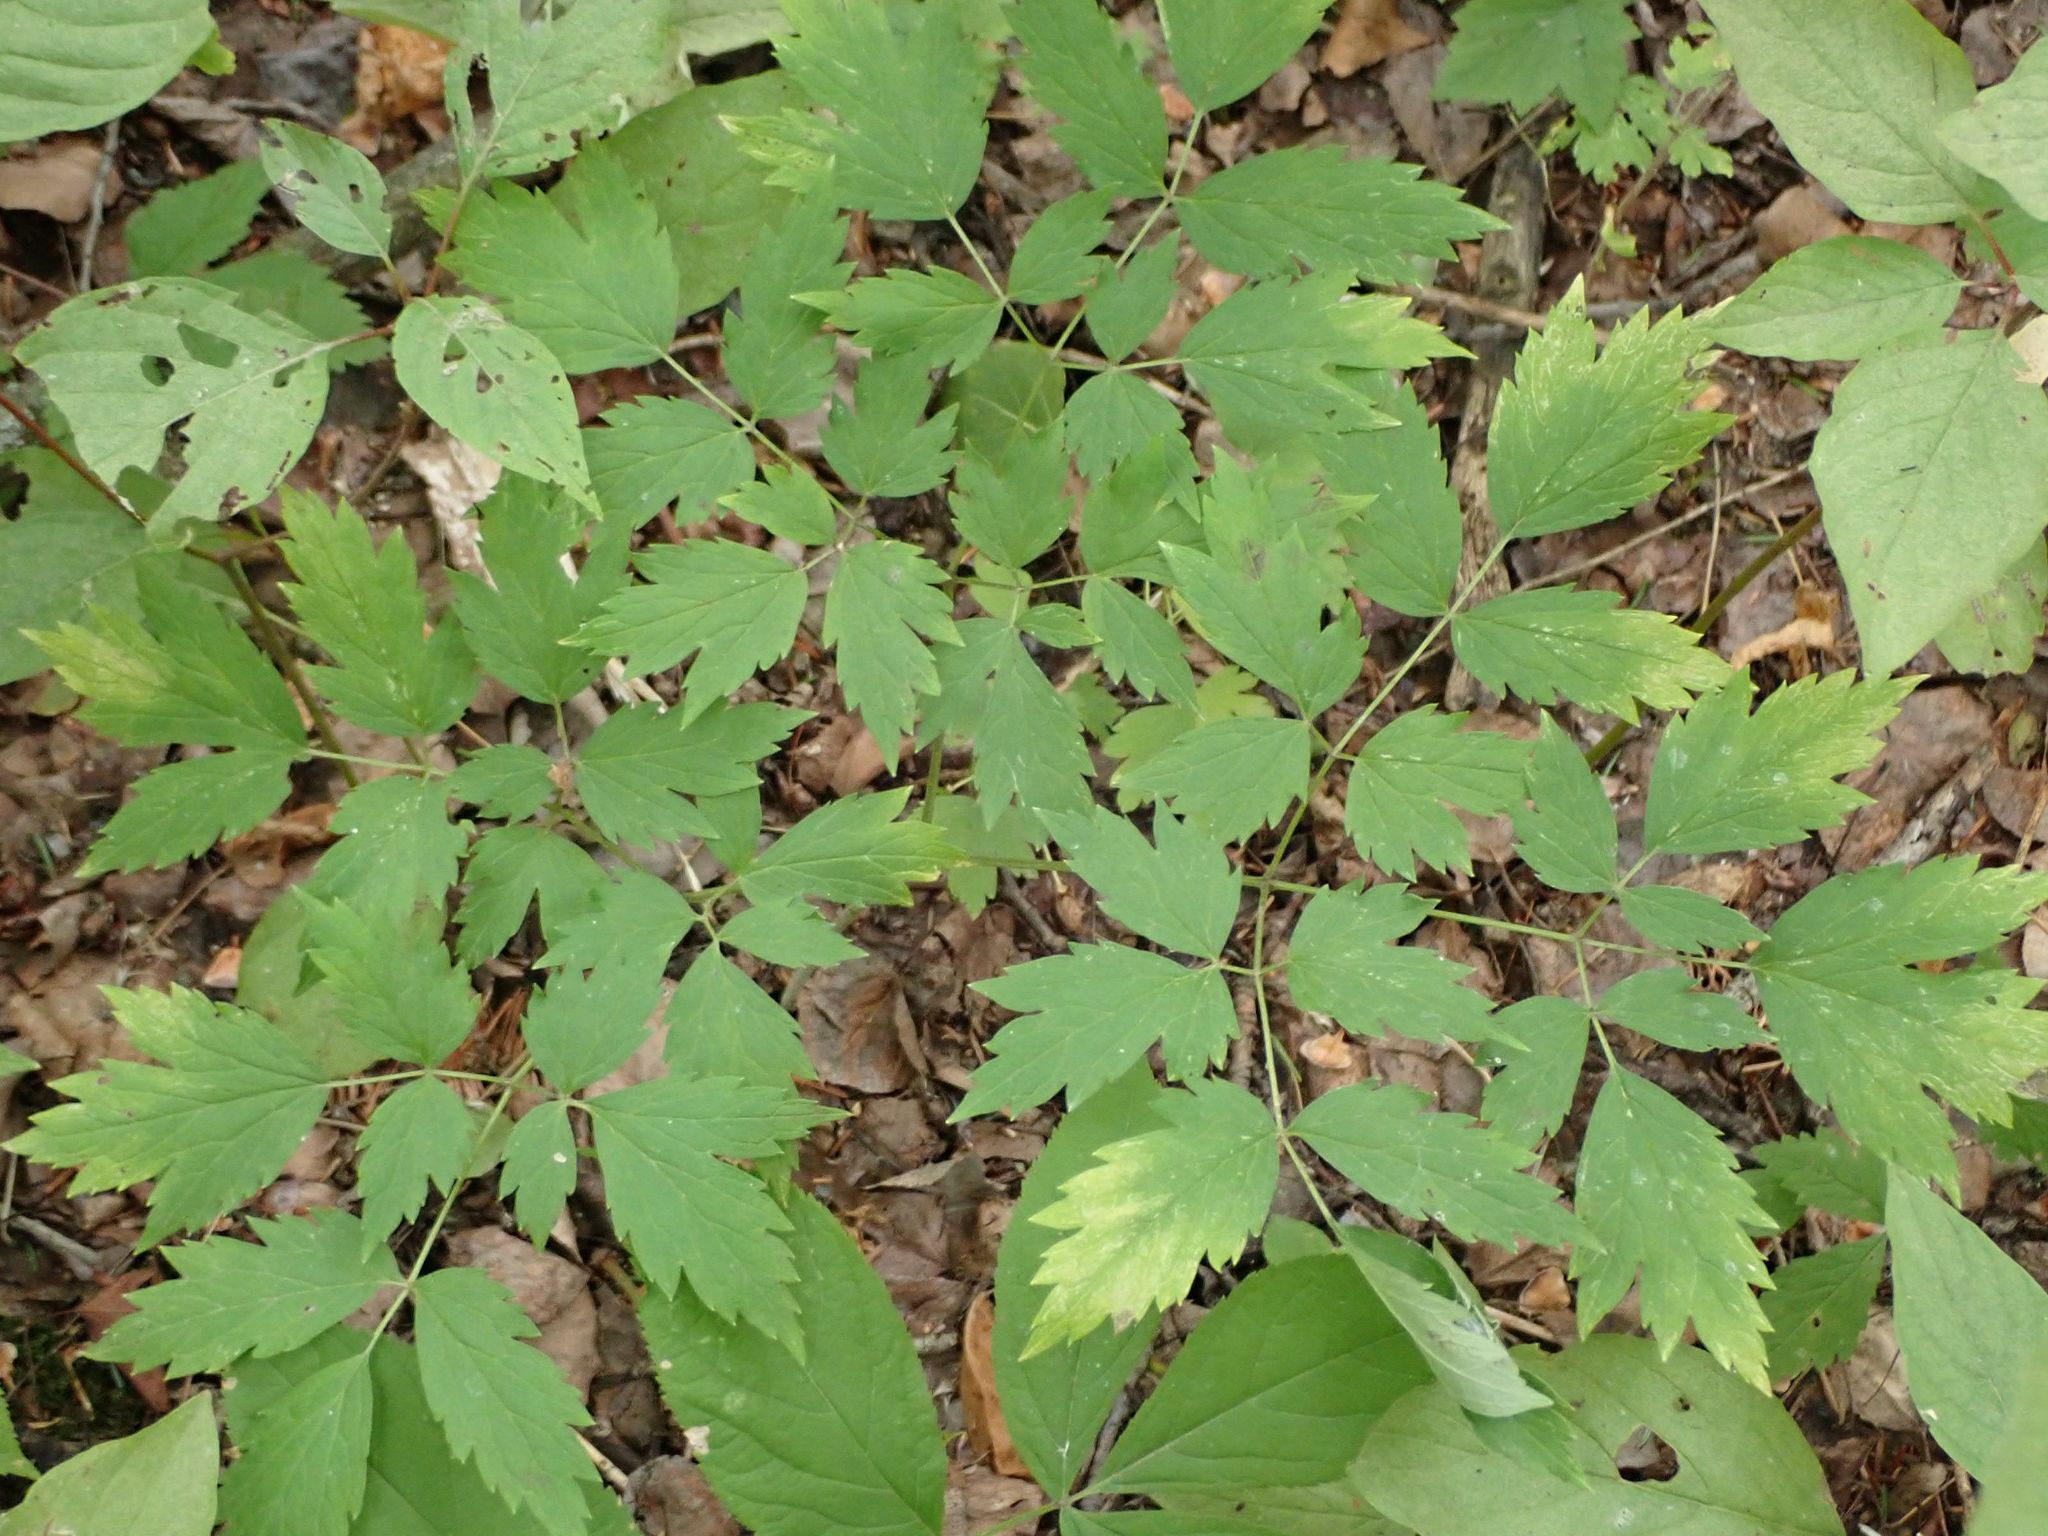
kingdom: Plantae
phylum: Tracheophyta
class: Magnoliopsida
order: Ranunculales
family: Ranunculaceae
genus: Actaea
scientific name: Actaea rubra
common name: Red baneberry
